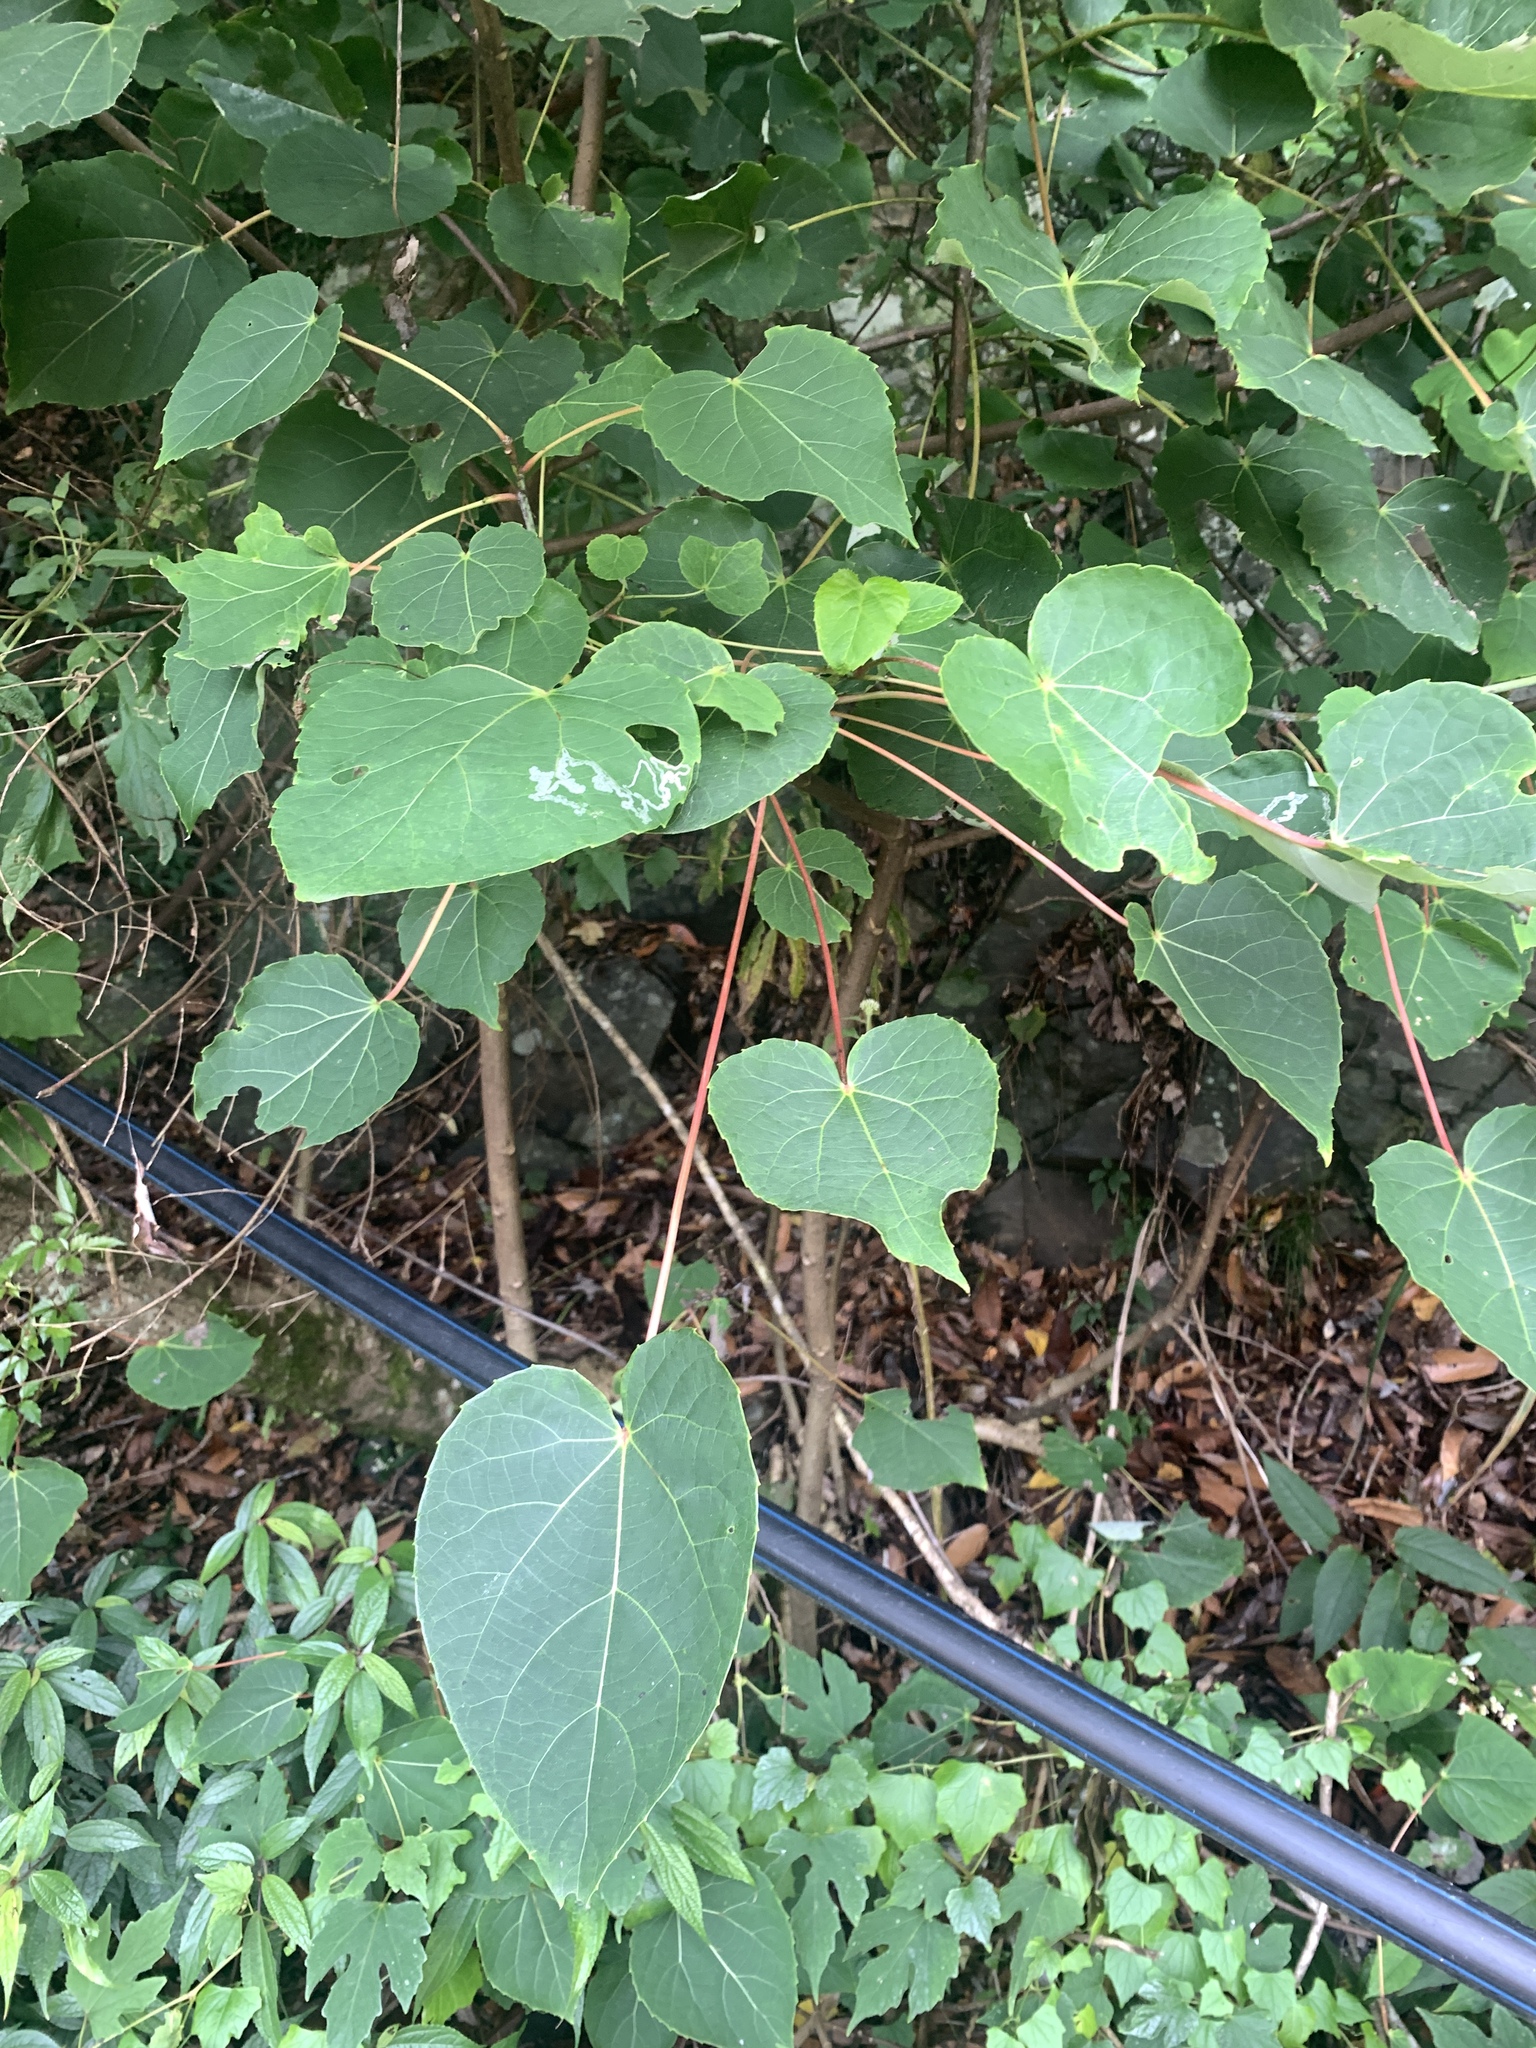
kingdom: Plantae
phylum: Tracheophyta
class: Magnoliopsida
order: Malpighiales
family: Salicaceae
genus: Idesia
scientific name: Idesia polycarpa
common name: Idesia tree
